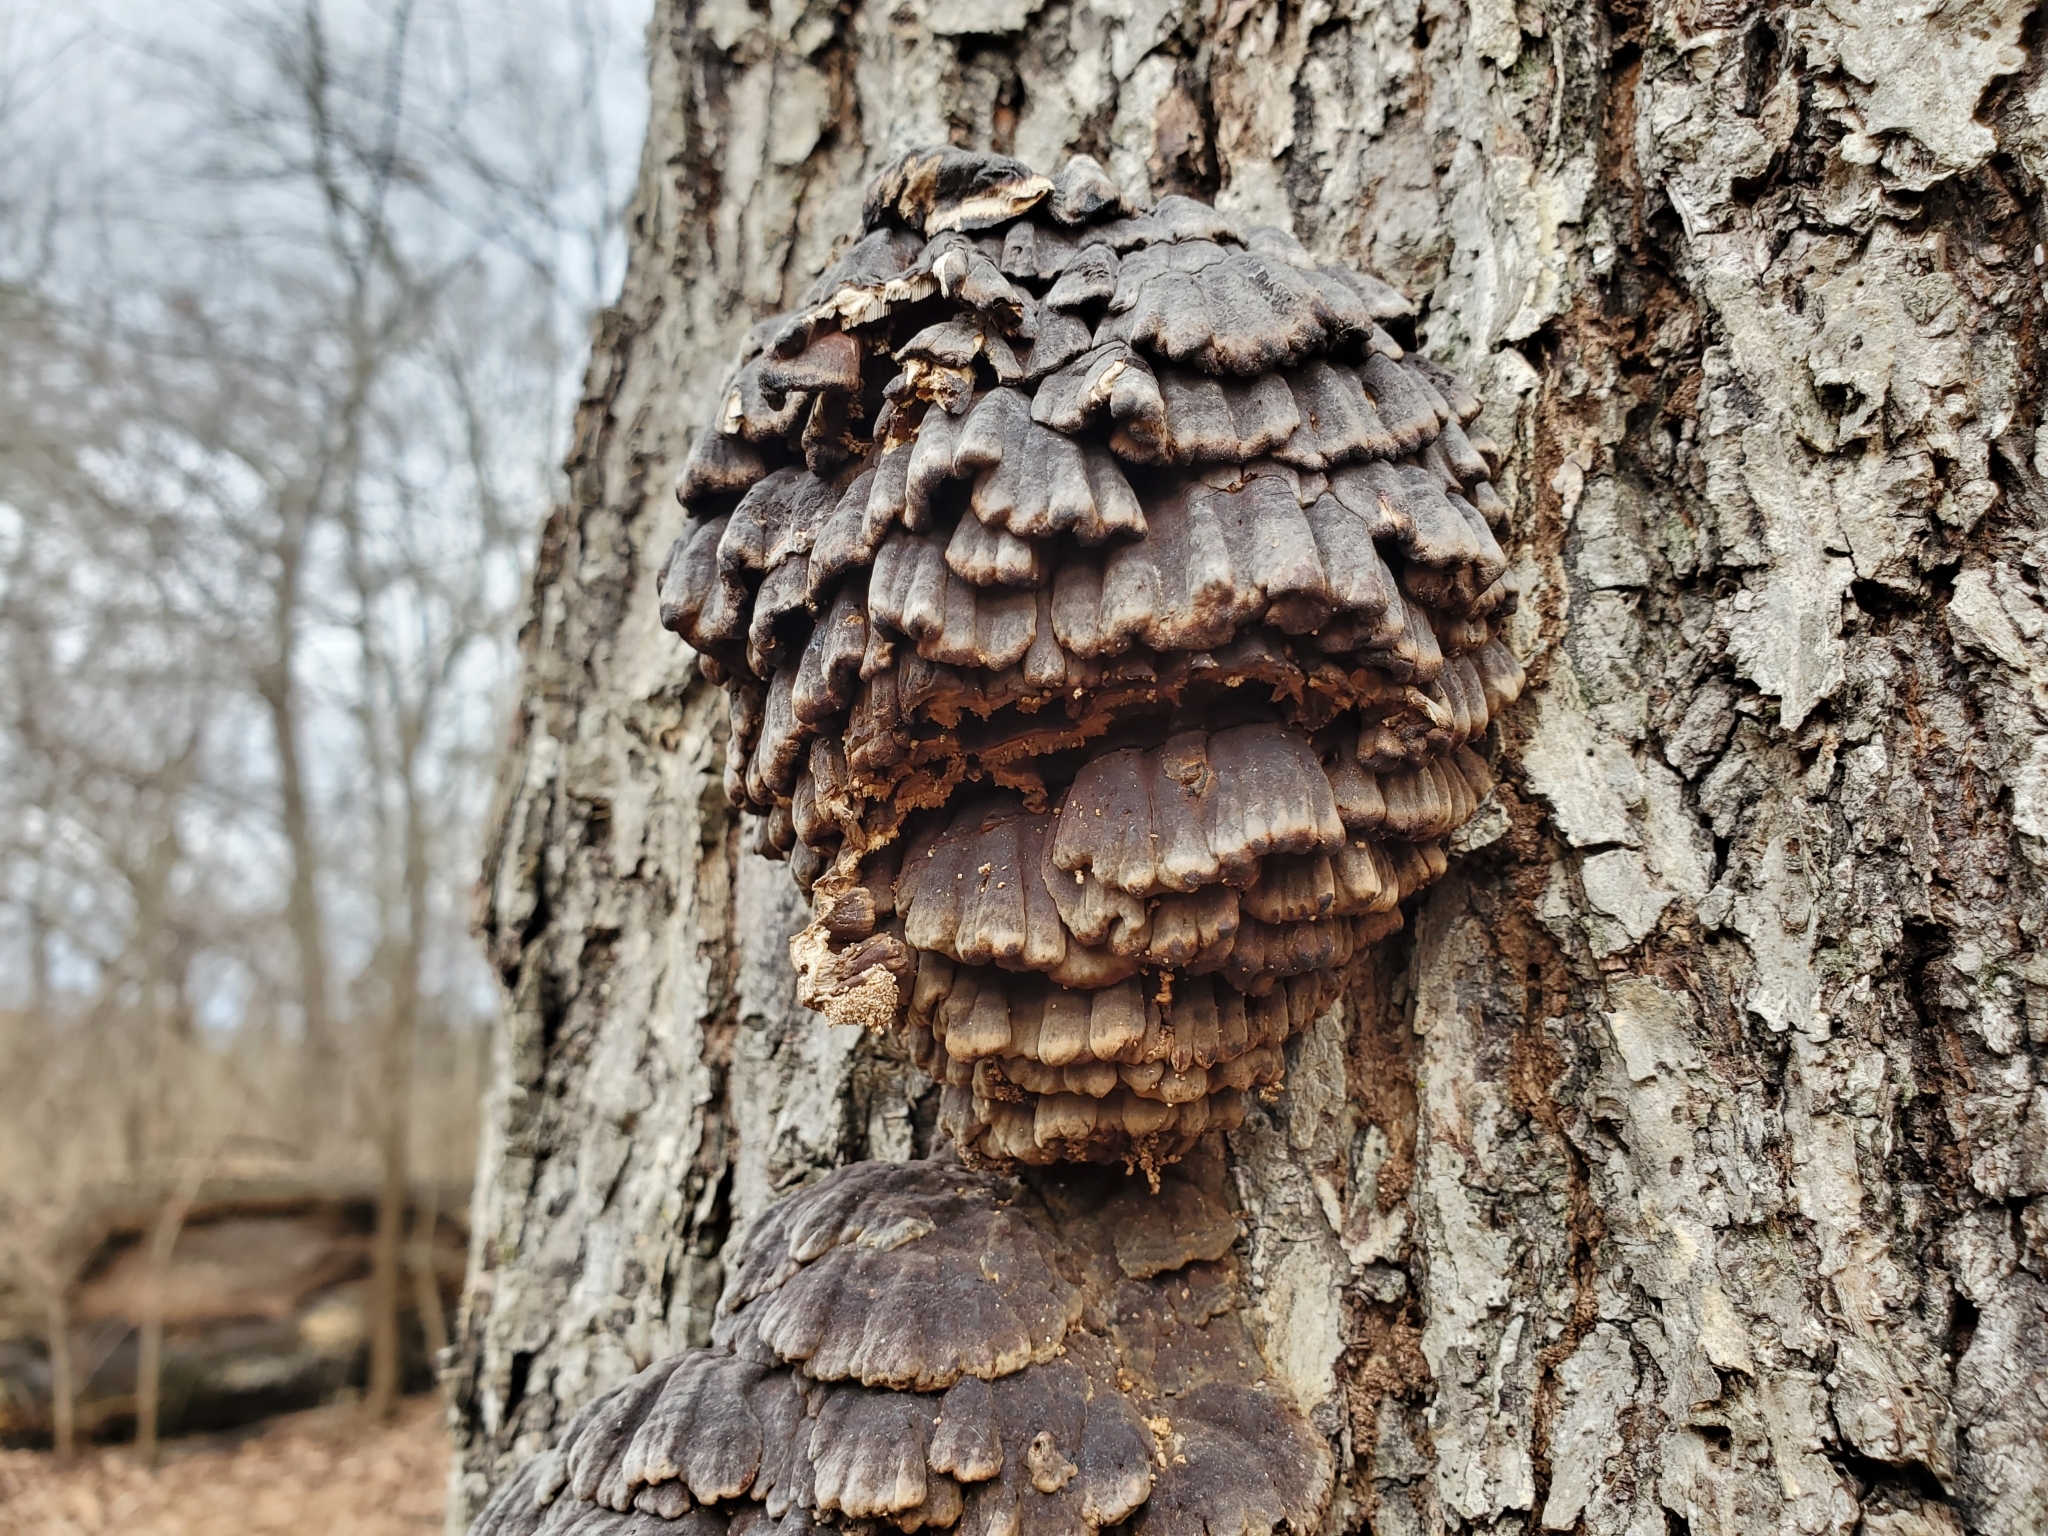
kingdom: Fungi
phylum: Basidiomycota
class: Agaricomycetes
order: Polyporales
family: Polyporaceae
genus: Globifomes
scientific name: Globifomes graveolens
